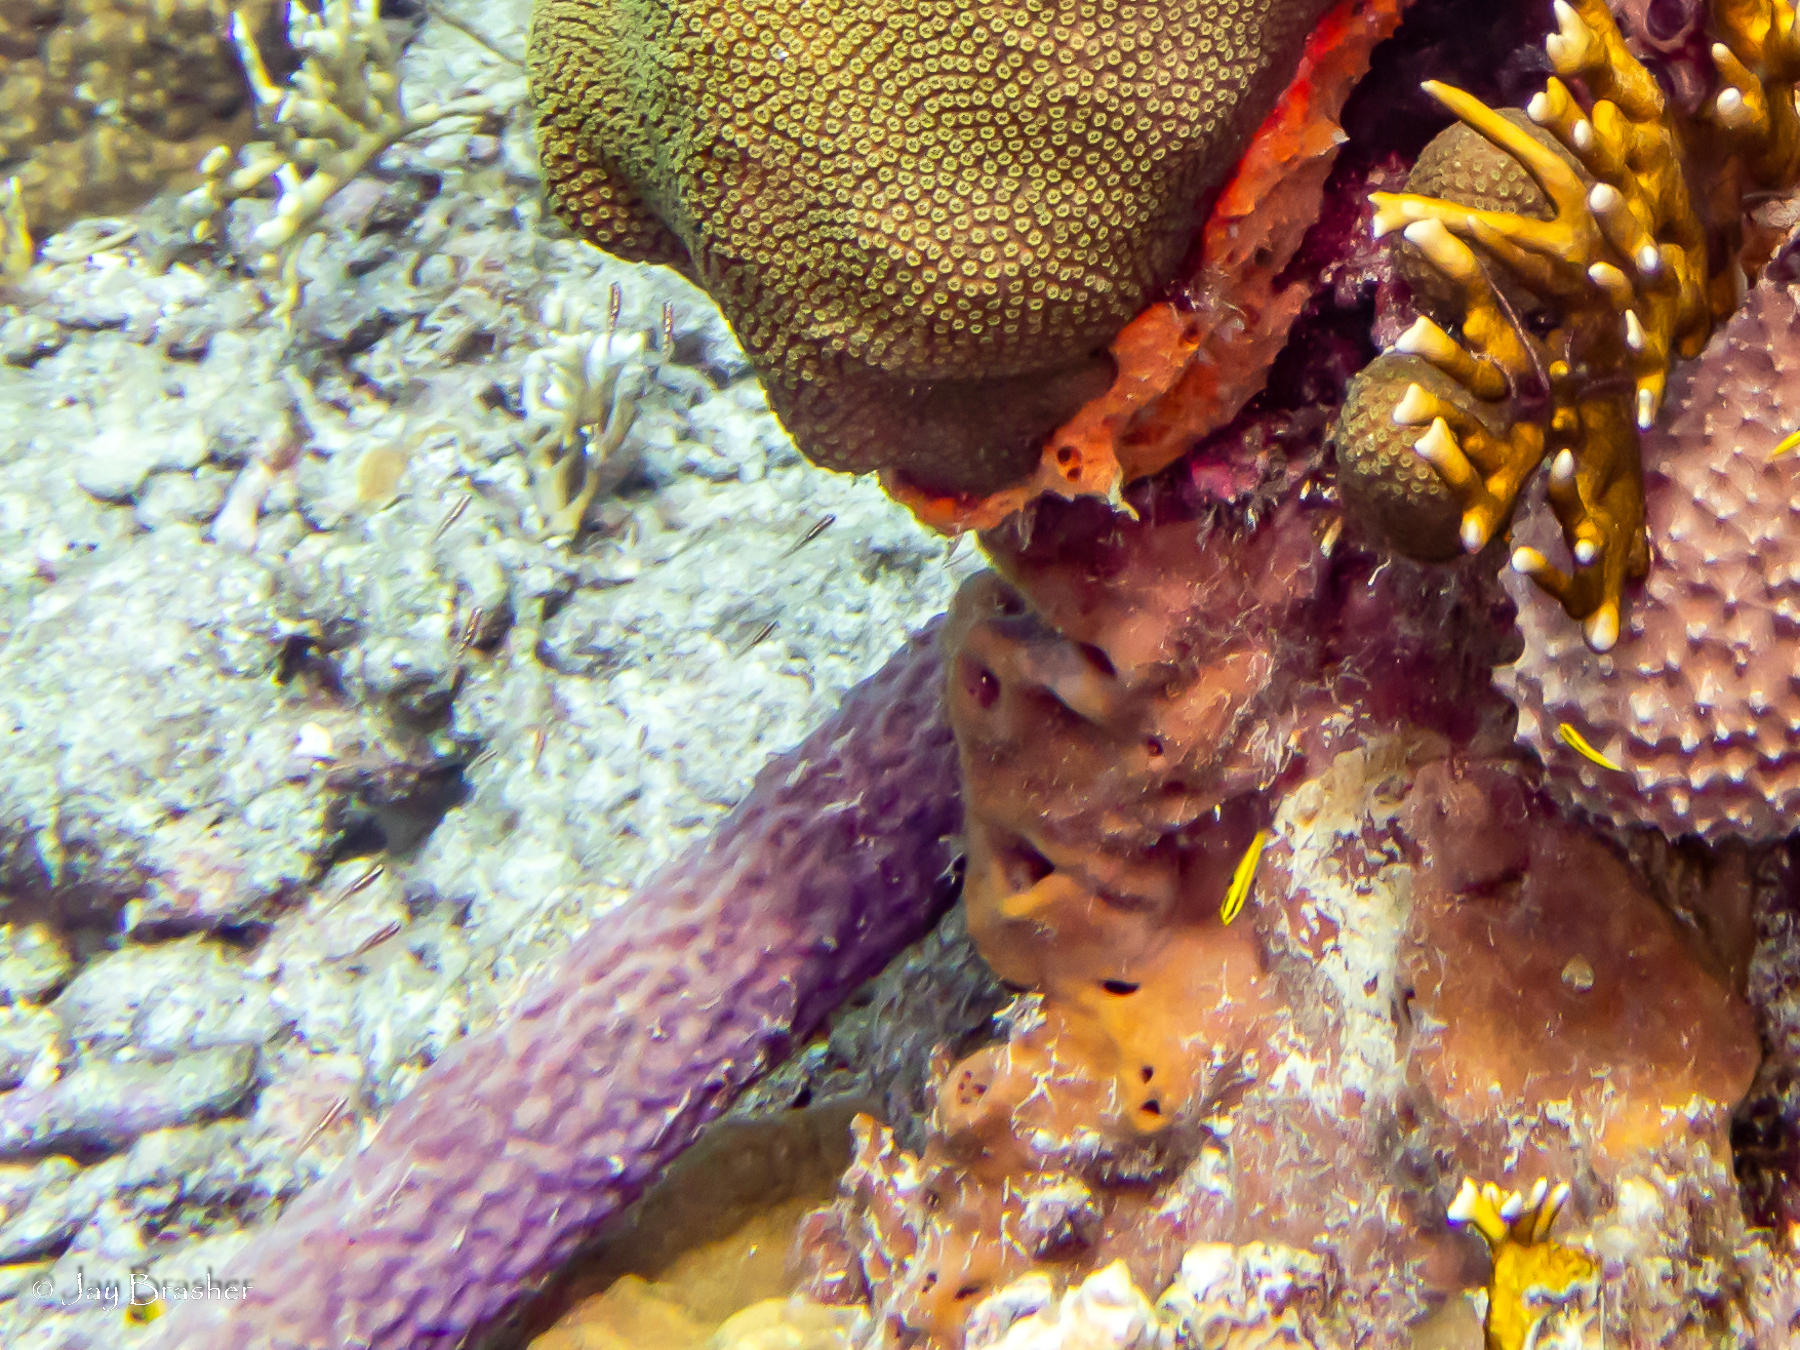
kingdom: Animalia
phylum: Porifera
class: Demospongiae
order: Scopalinida
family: Scopalinidae
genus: Scopalina
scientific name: Scopalina ruetzleri
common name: Orange lumpy encrusting sponge
